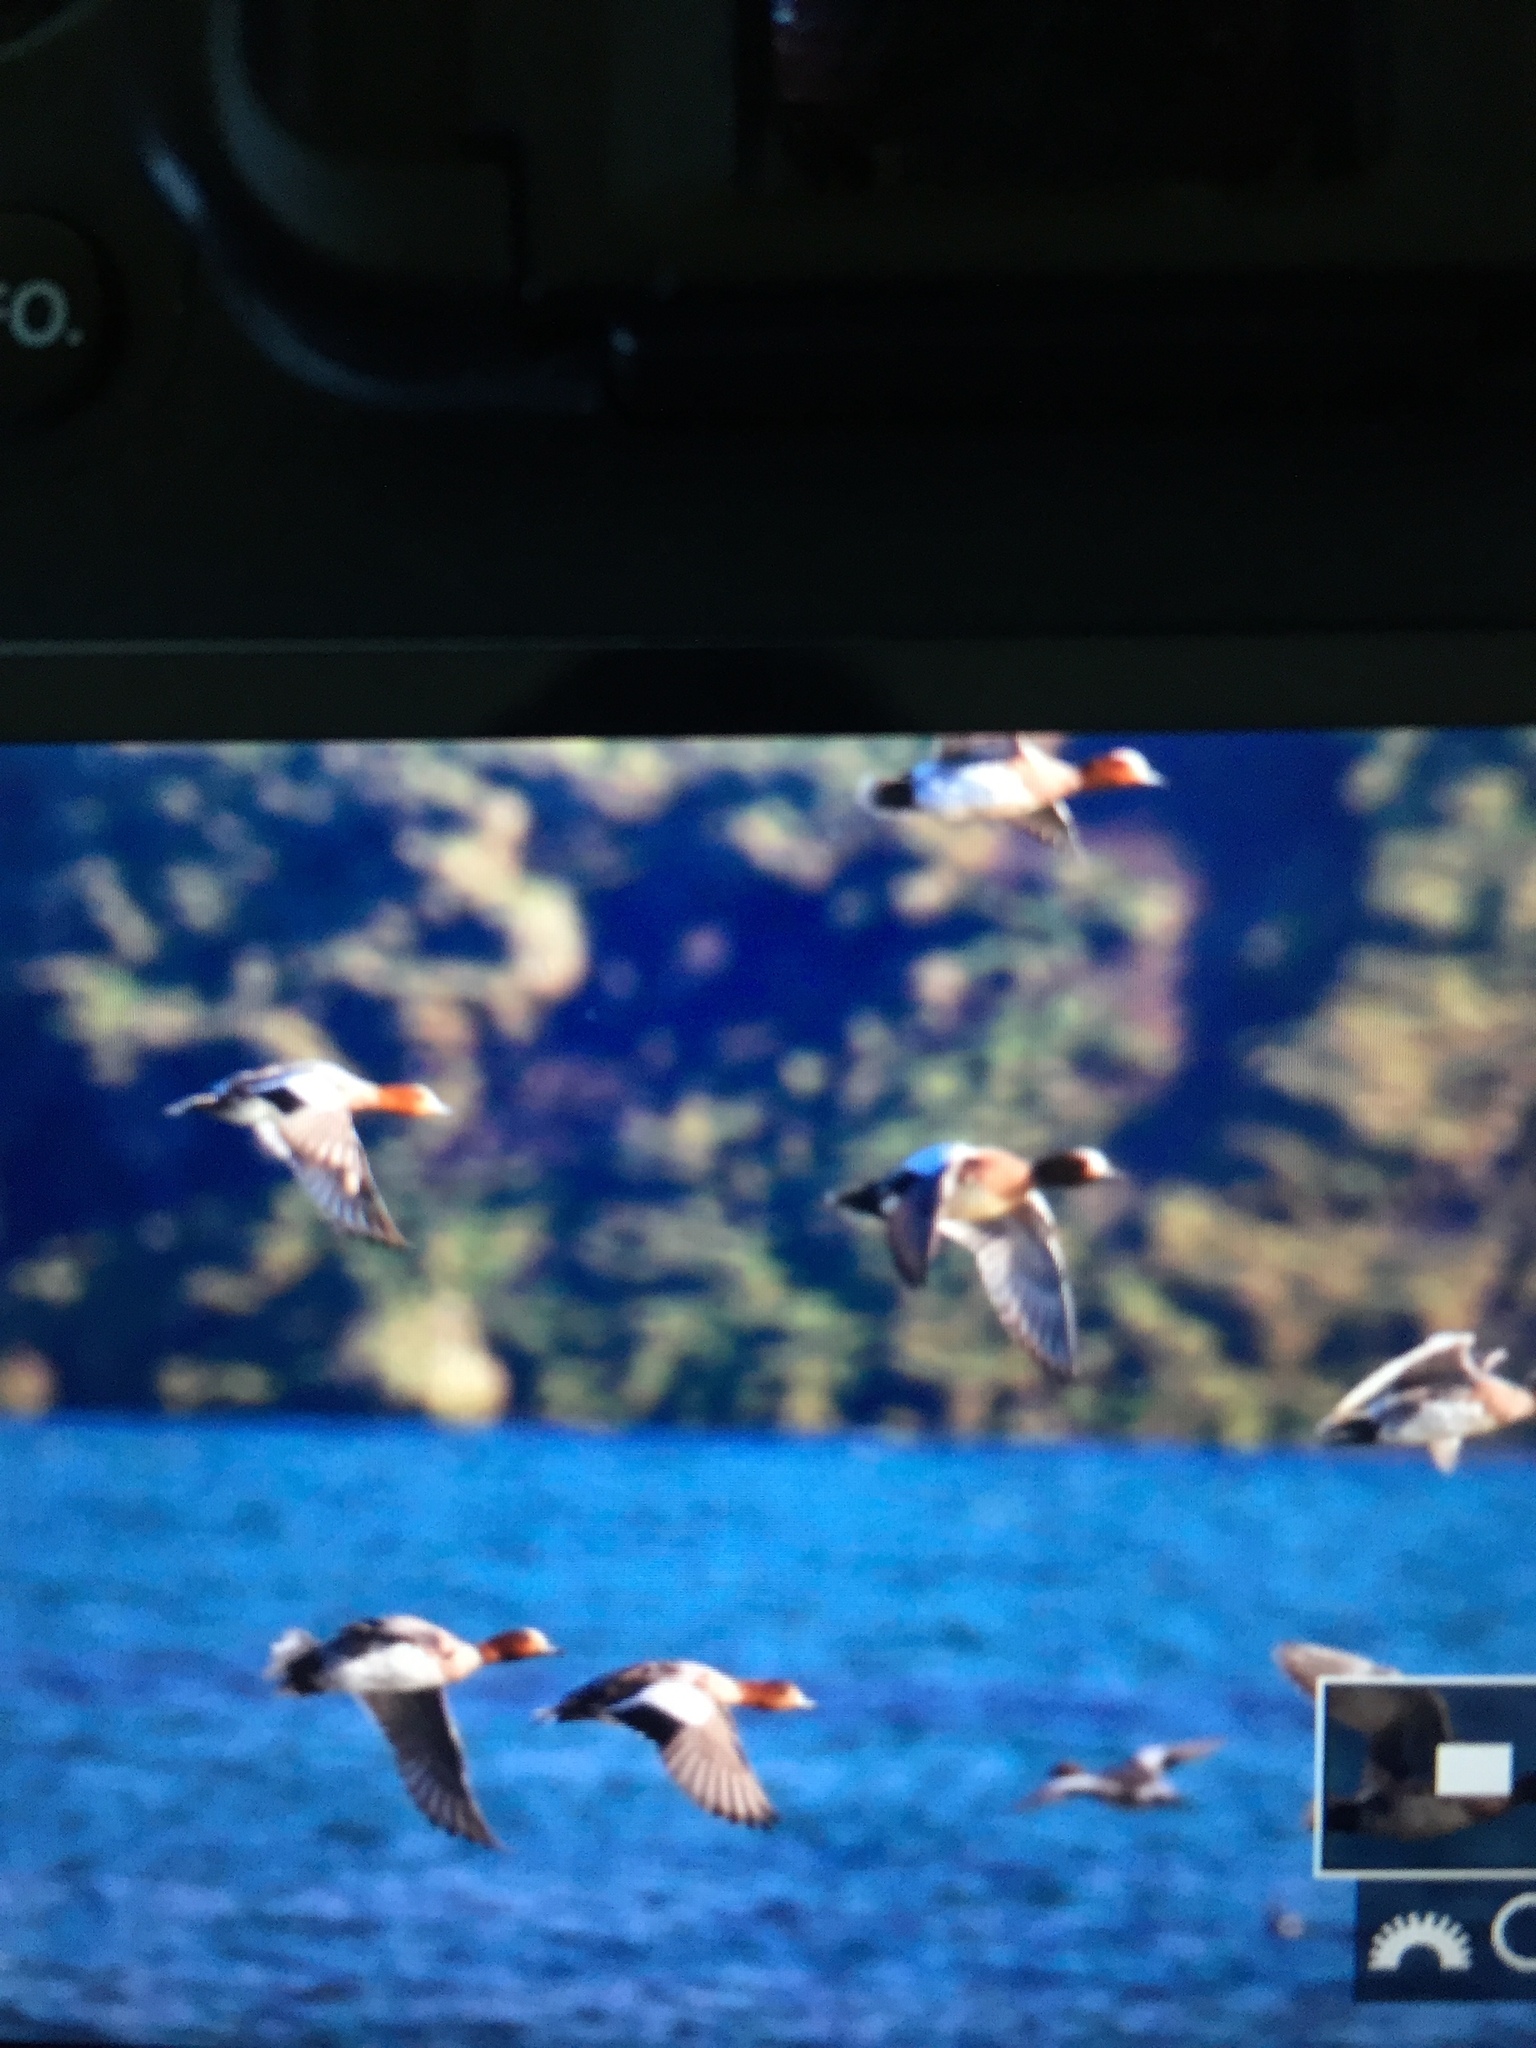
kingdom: Animalia
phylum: Chordata
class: Aves
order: Anseriformes
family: Anatidae
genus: Mareca
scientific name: Mareca penelope
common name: Eurasian wigeon
